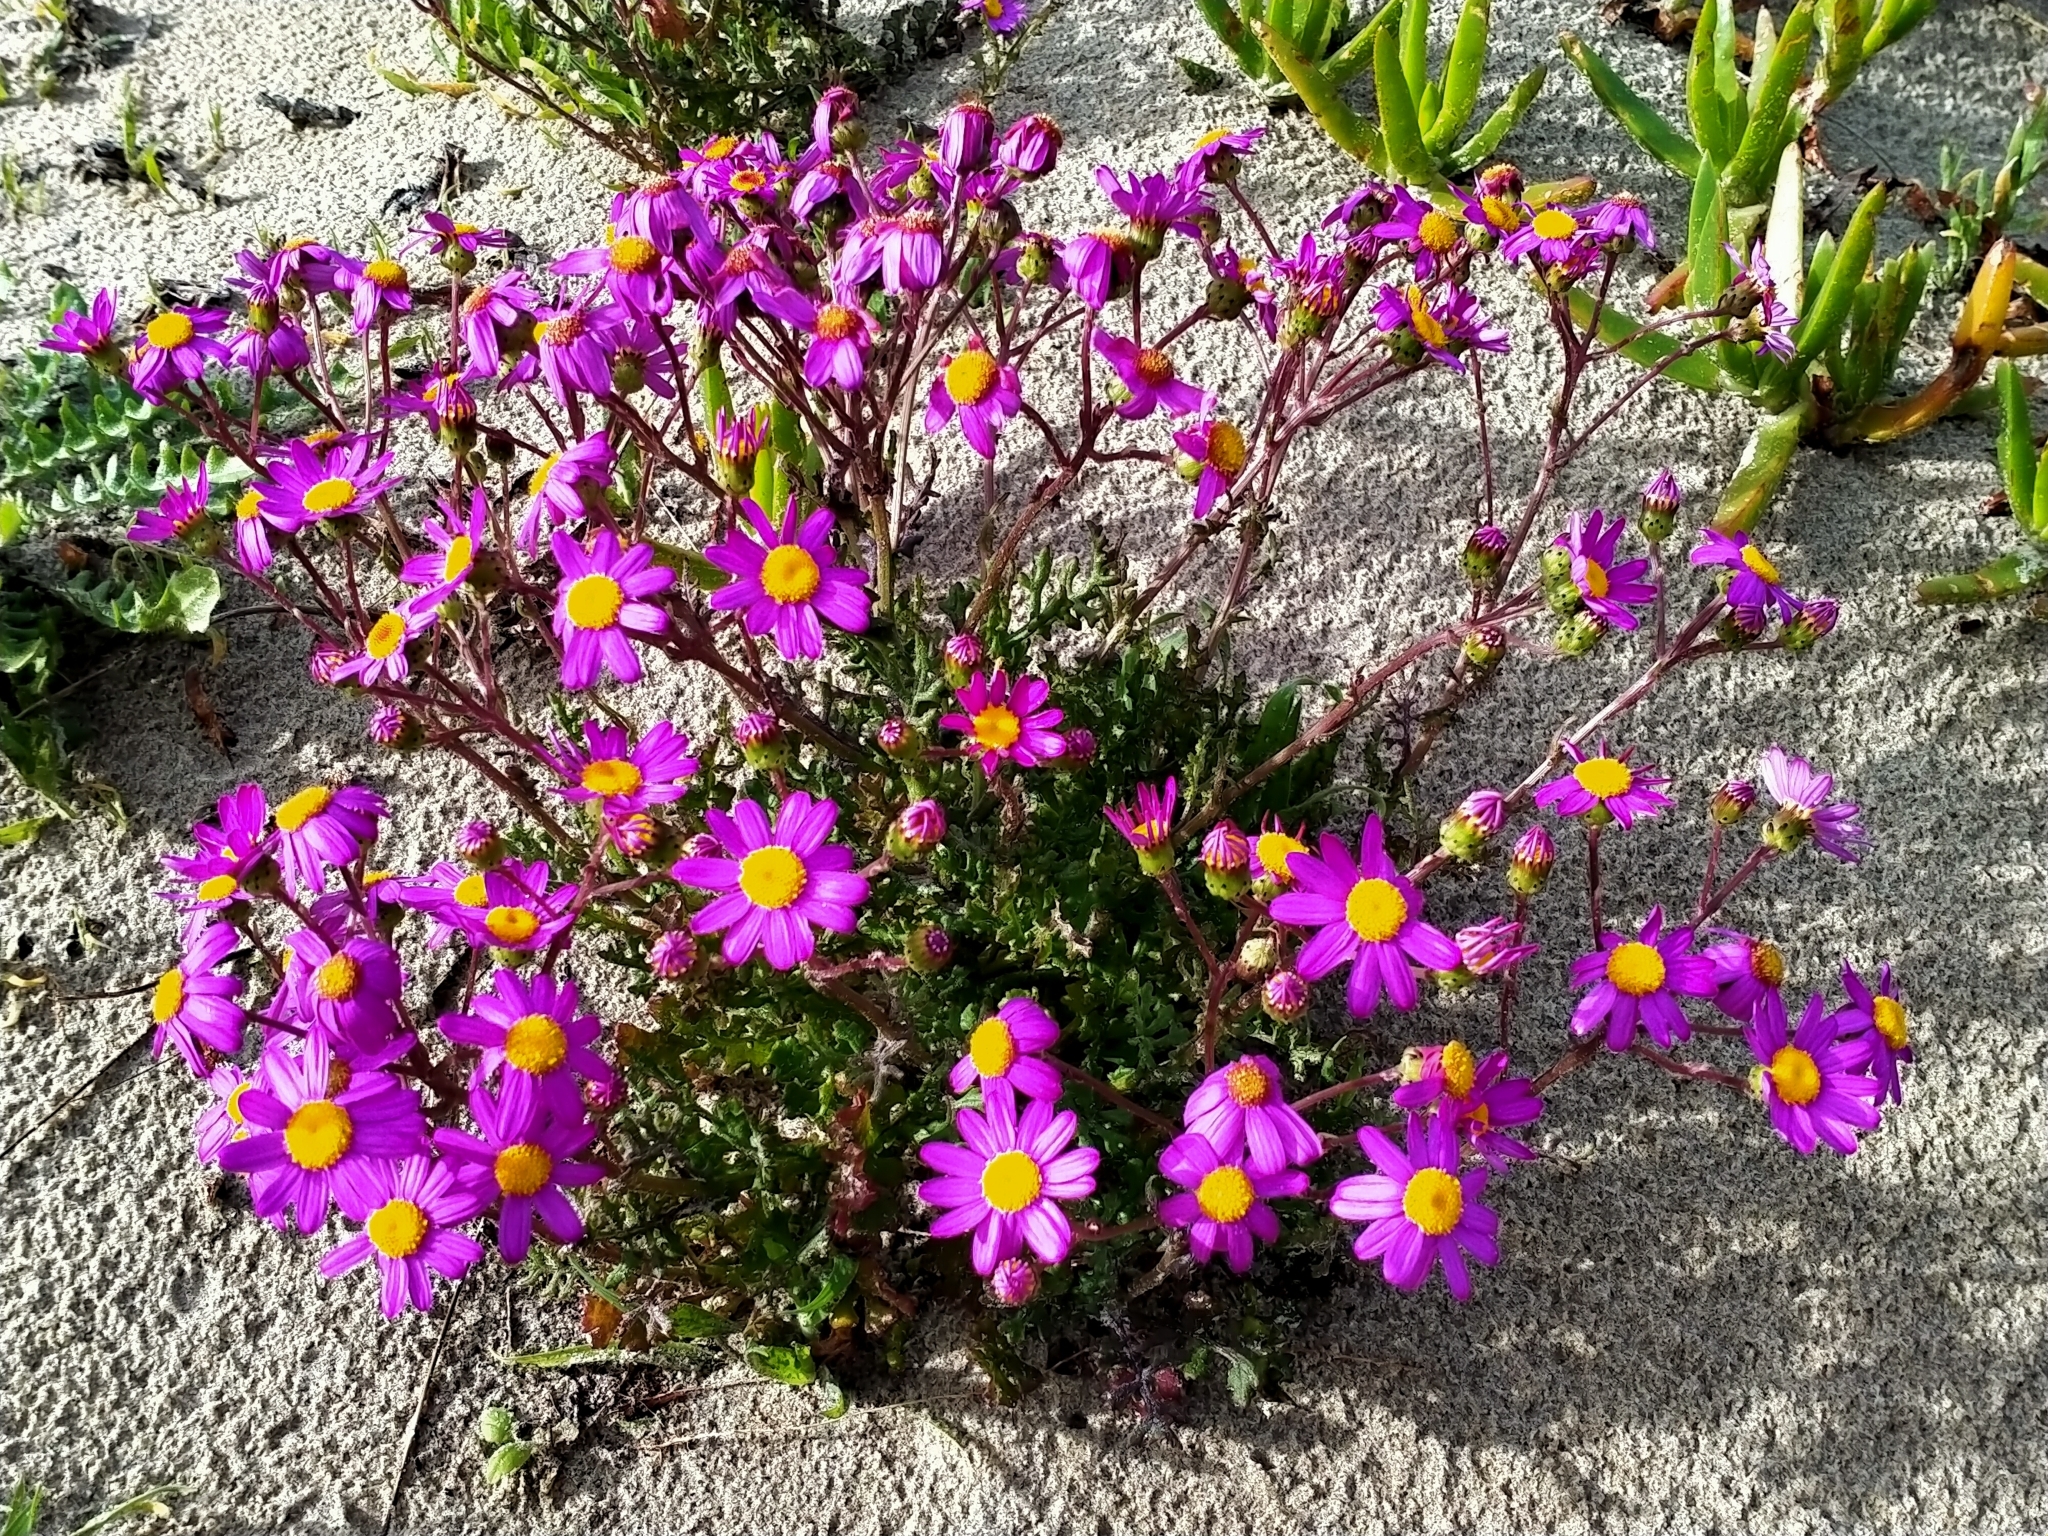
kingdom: Plantae
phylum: Tracheophyta
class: Magnoliopsida
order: Asterales
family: Asteraceae
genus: Senecio
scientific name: Senecio elegans
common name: Purple groundsel
